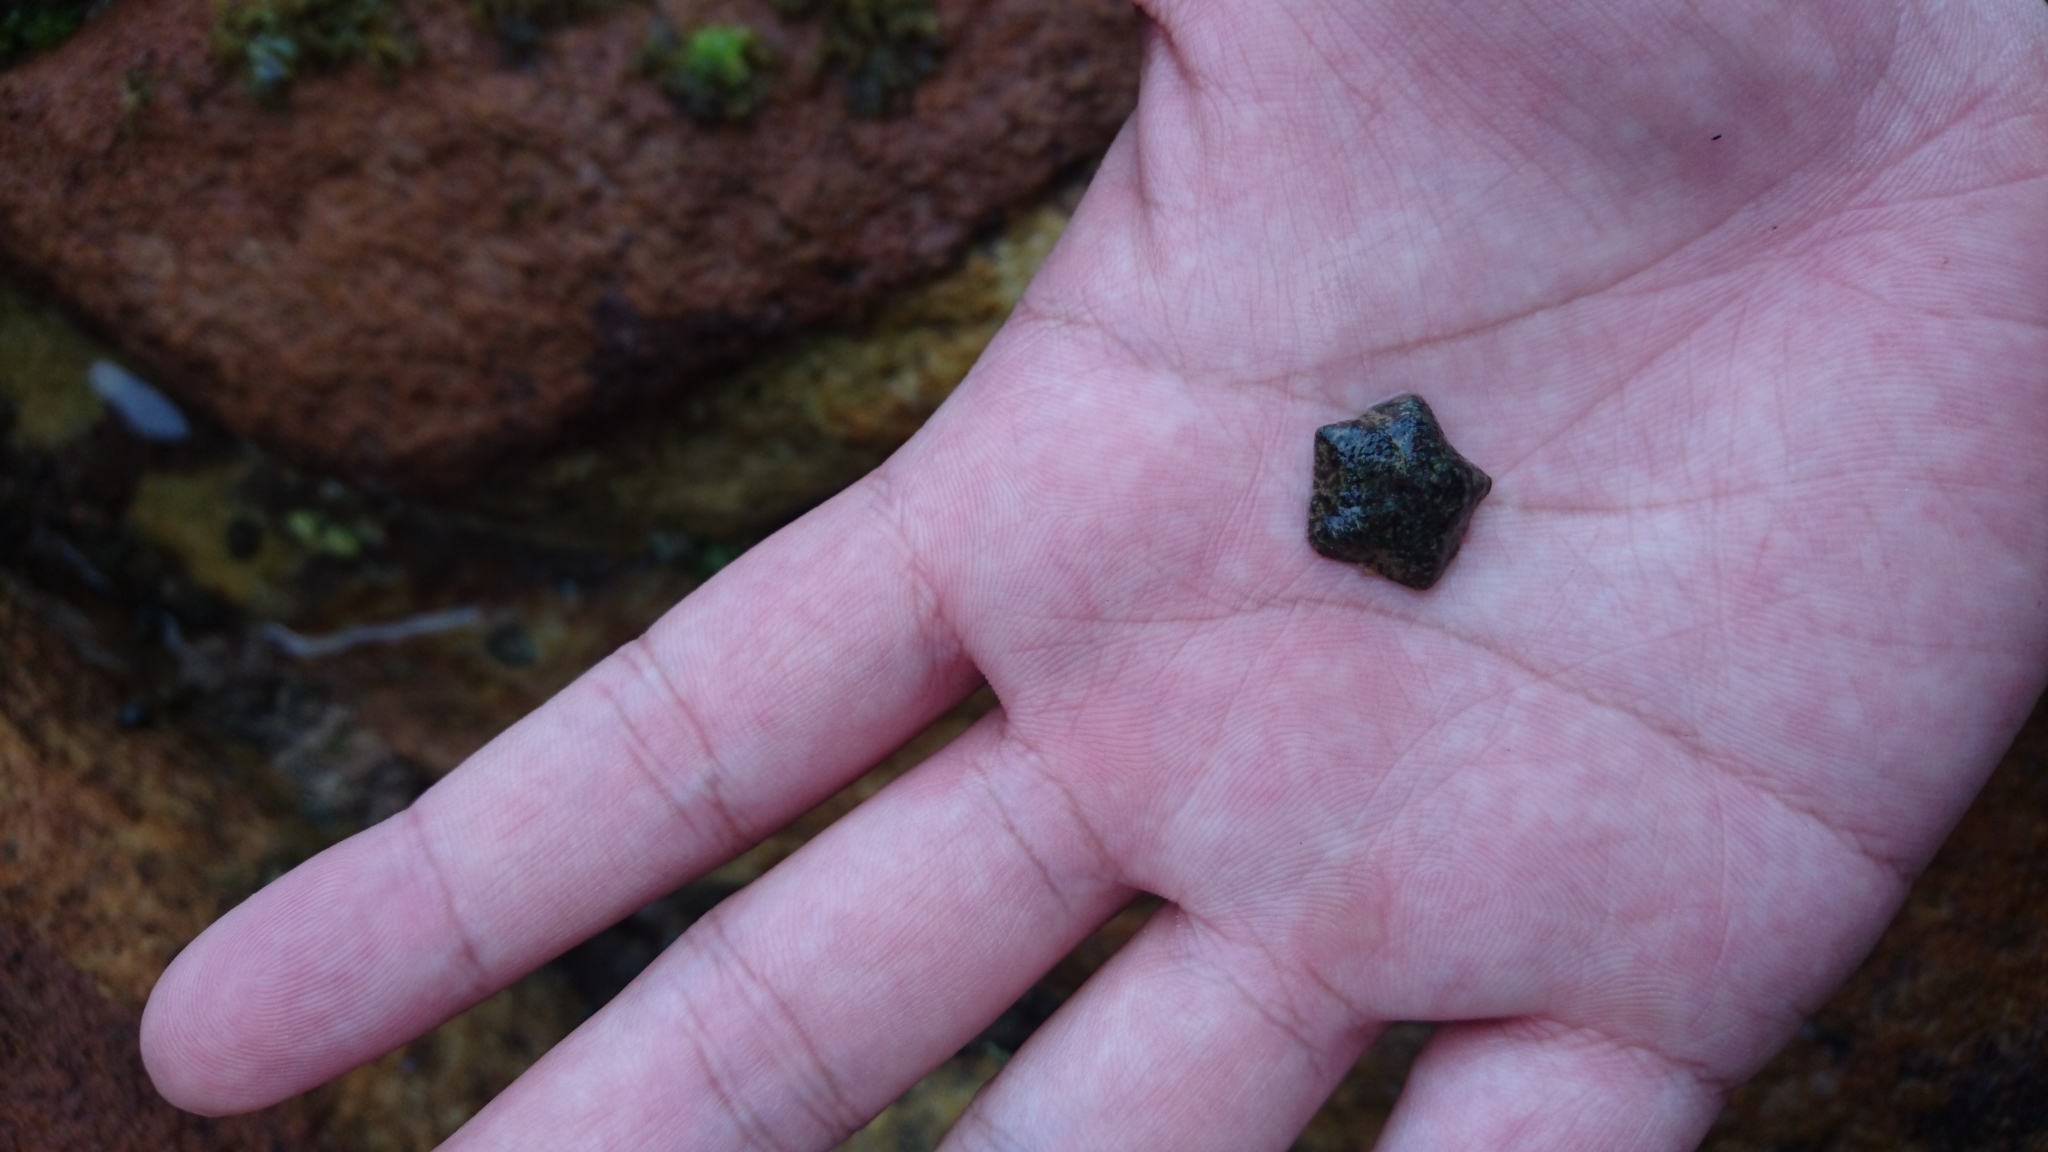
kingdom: Animalia
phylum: Echinodermata
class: Asteroidea
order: Valvatida
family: Asterinidae
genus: Parvulastra
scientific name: Parvulastra exigua
